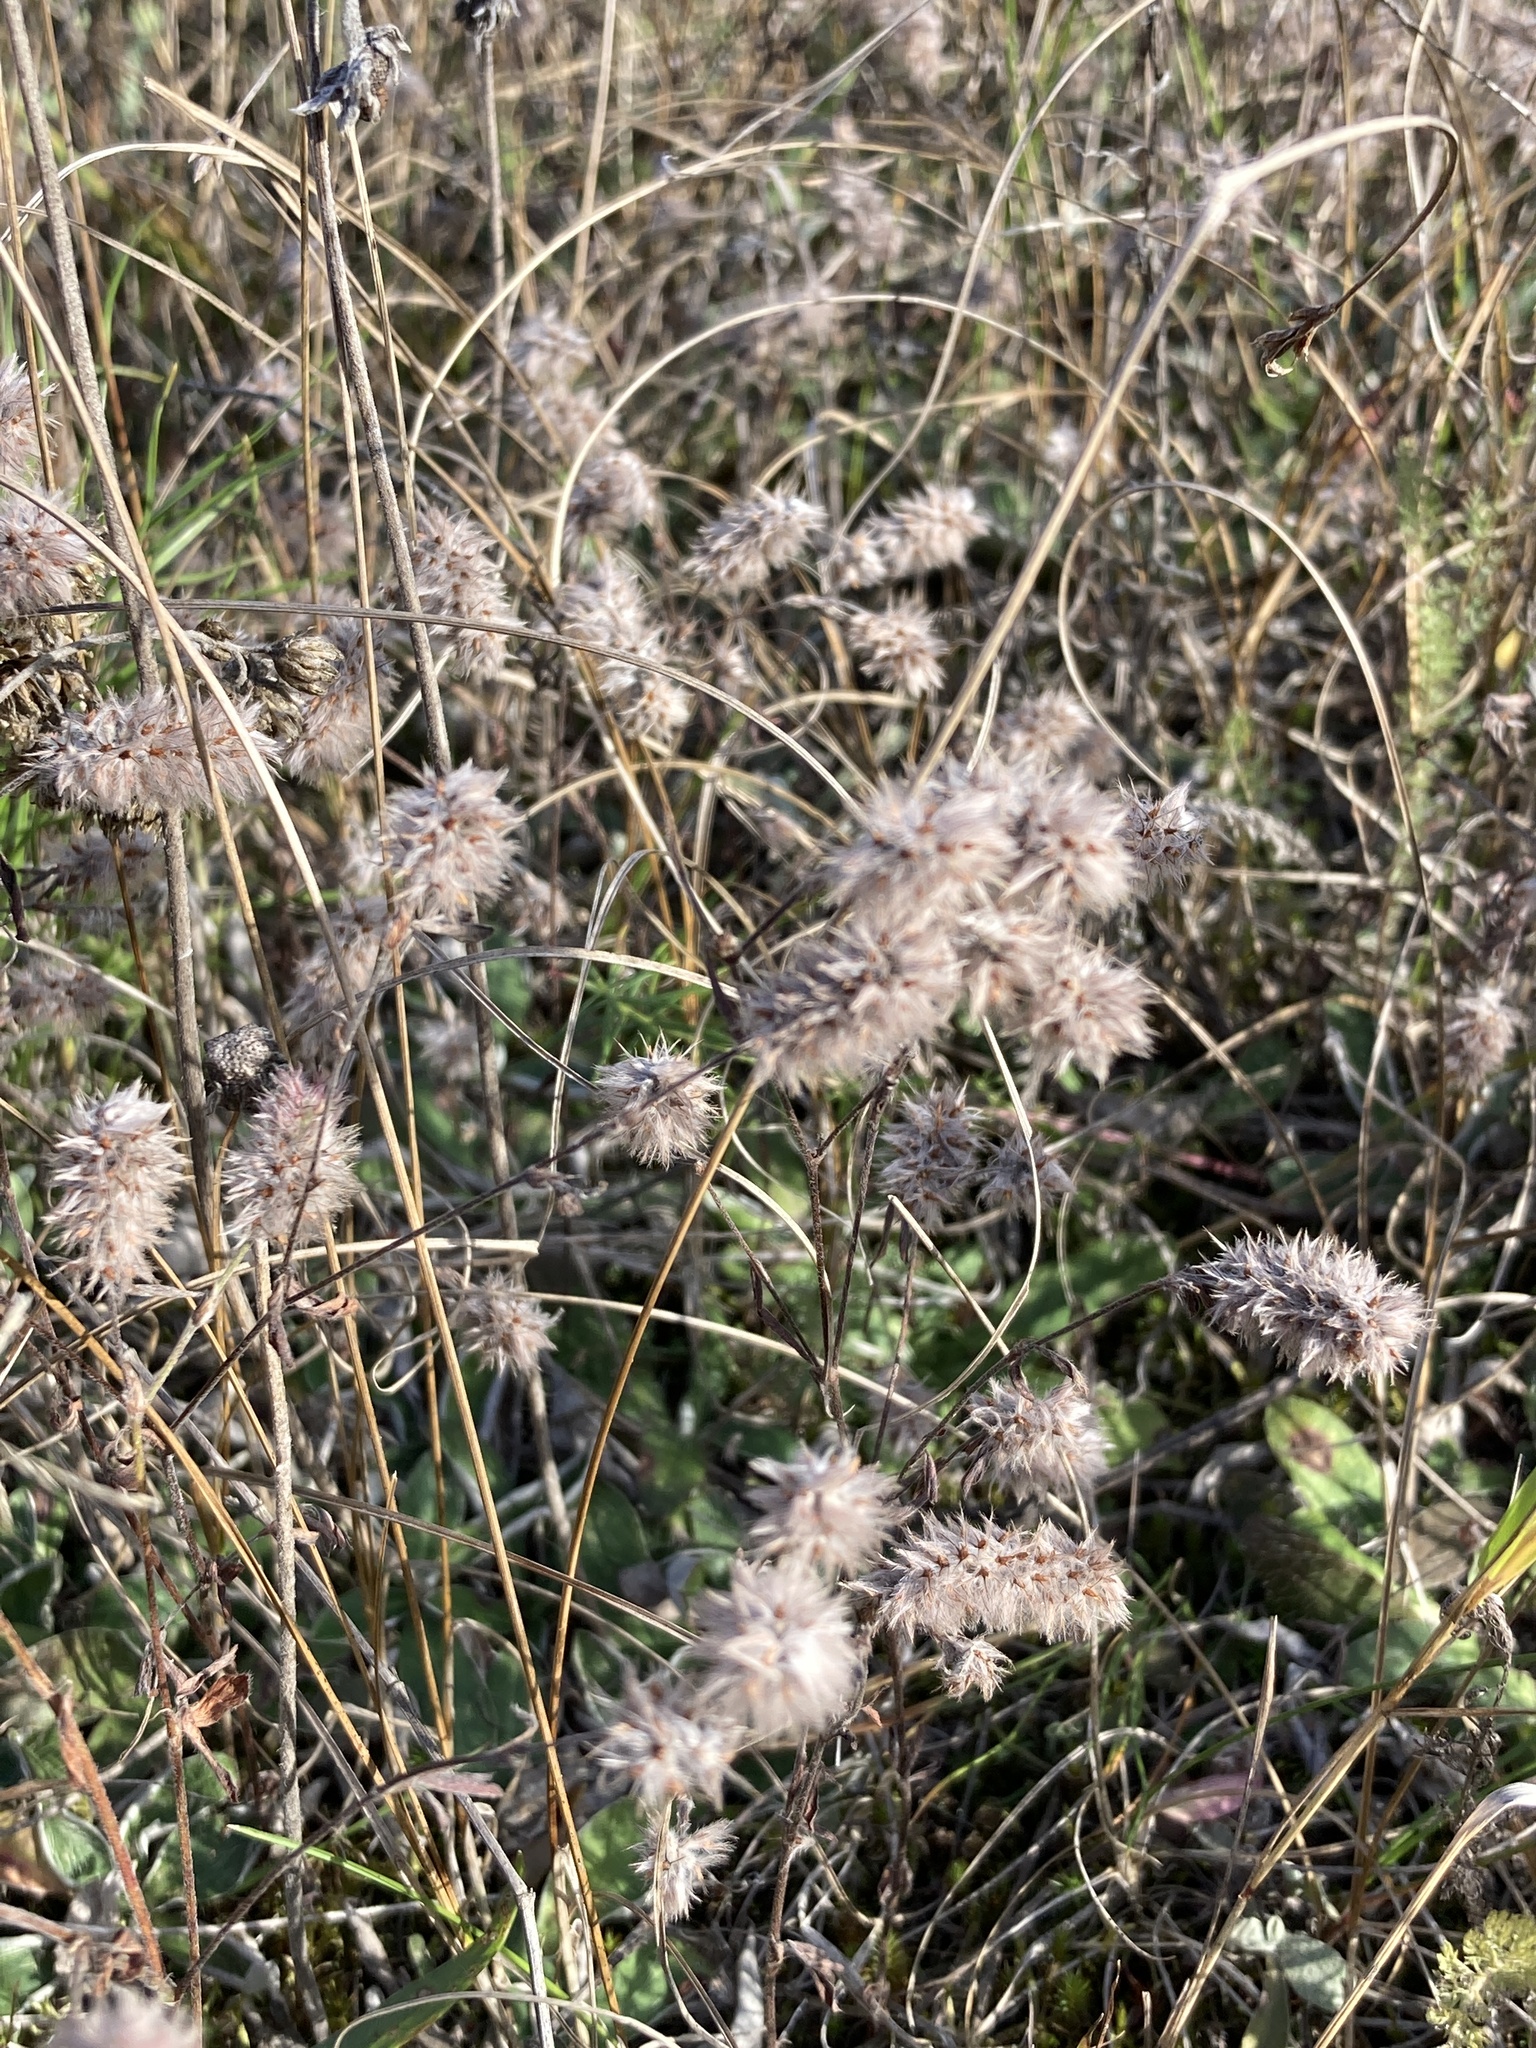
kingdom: Plantae
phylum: Tracheophyta
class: Magnoliopsida
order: Fabales
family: Fabaceae
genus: Trifolium
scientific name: Trifolium arvense
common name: Hare's-foot clover
